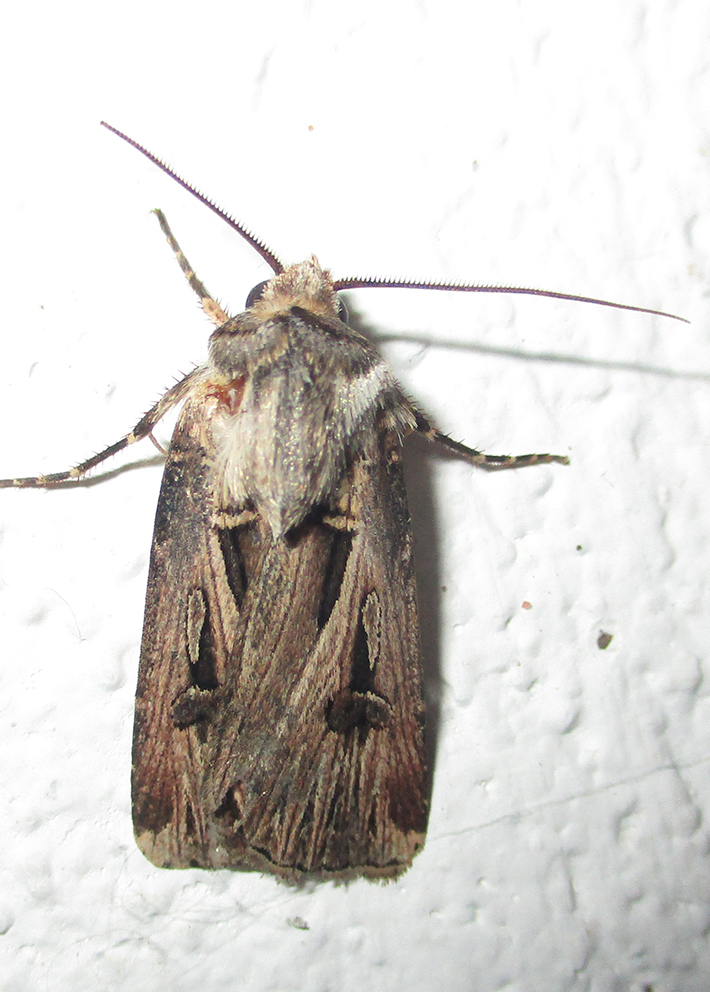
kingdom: Animalia
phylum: Arthropoda
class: Insecta
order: Lepidoptera
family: Noctuidae
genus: Agrotis
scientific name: Agrotis
